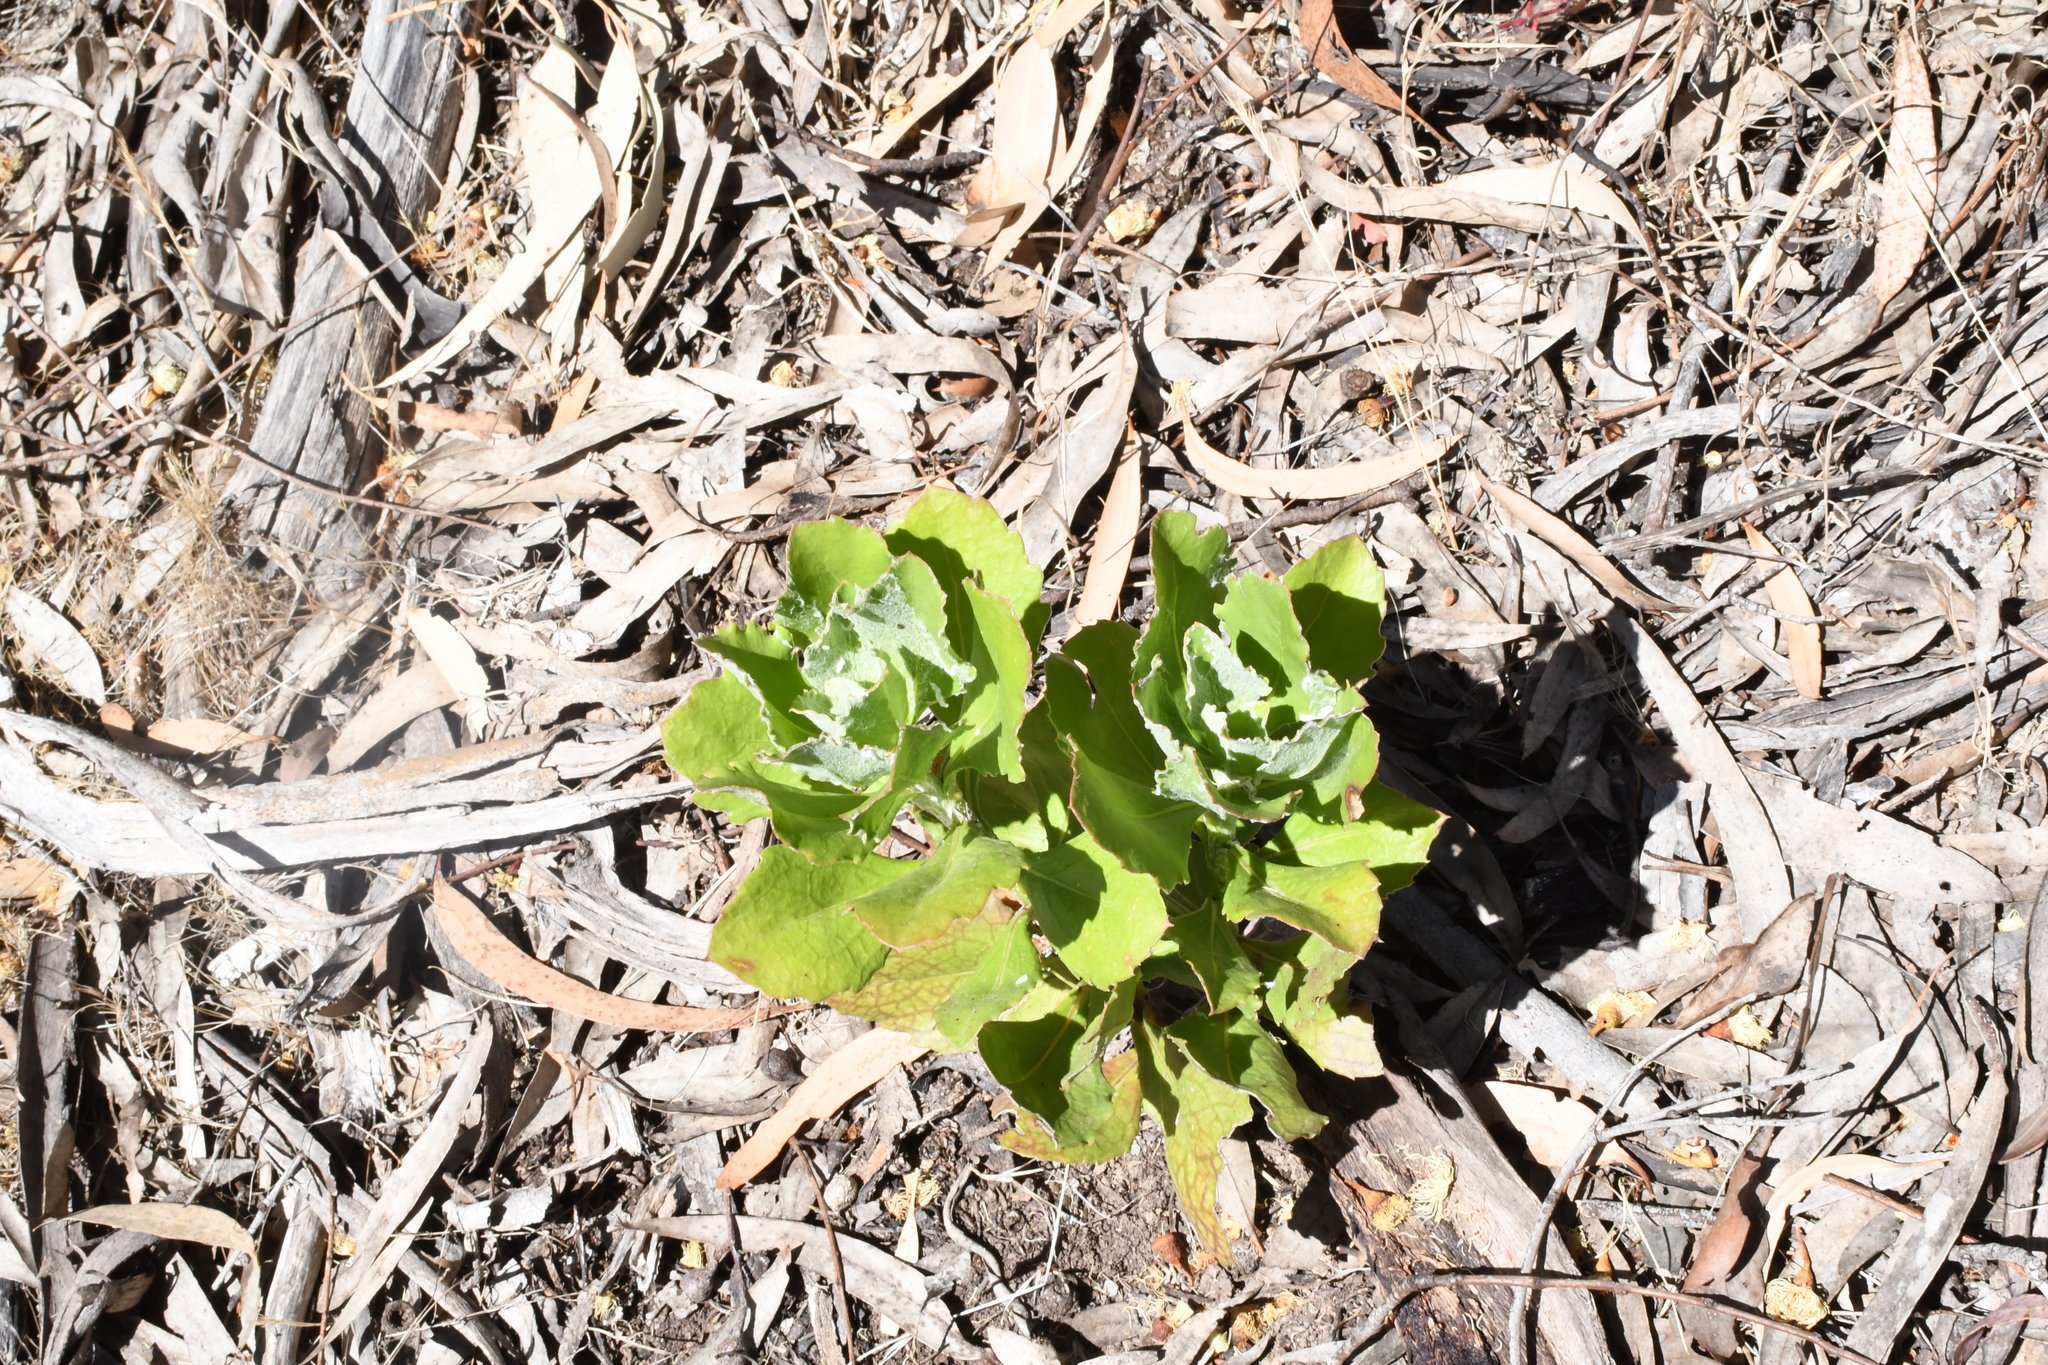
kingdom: Plantae
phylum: Tracheophyta
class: Magnoliopsida
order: Asterales
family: Asteraceae
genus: Osteospermum
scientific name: Osteospermum moniliferum
